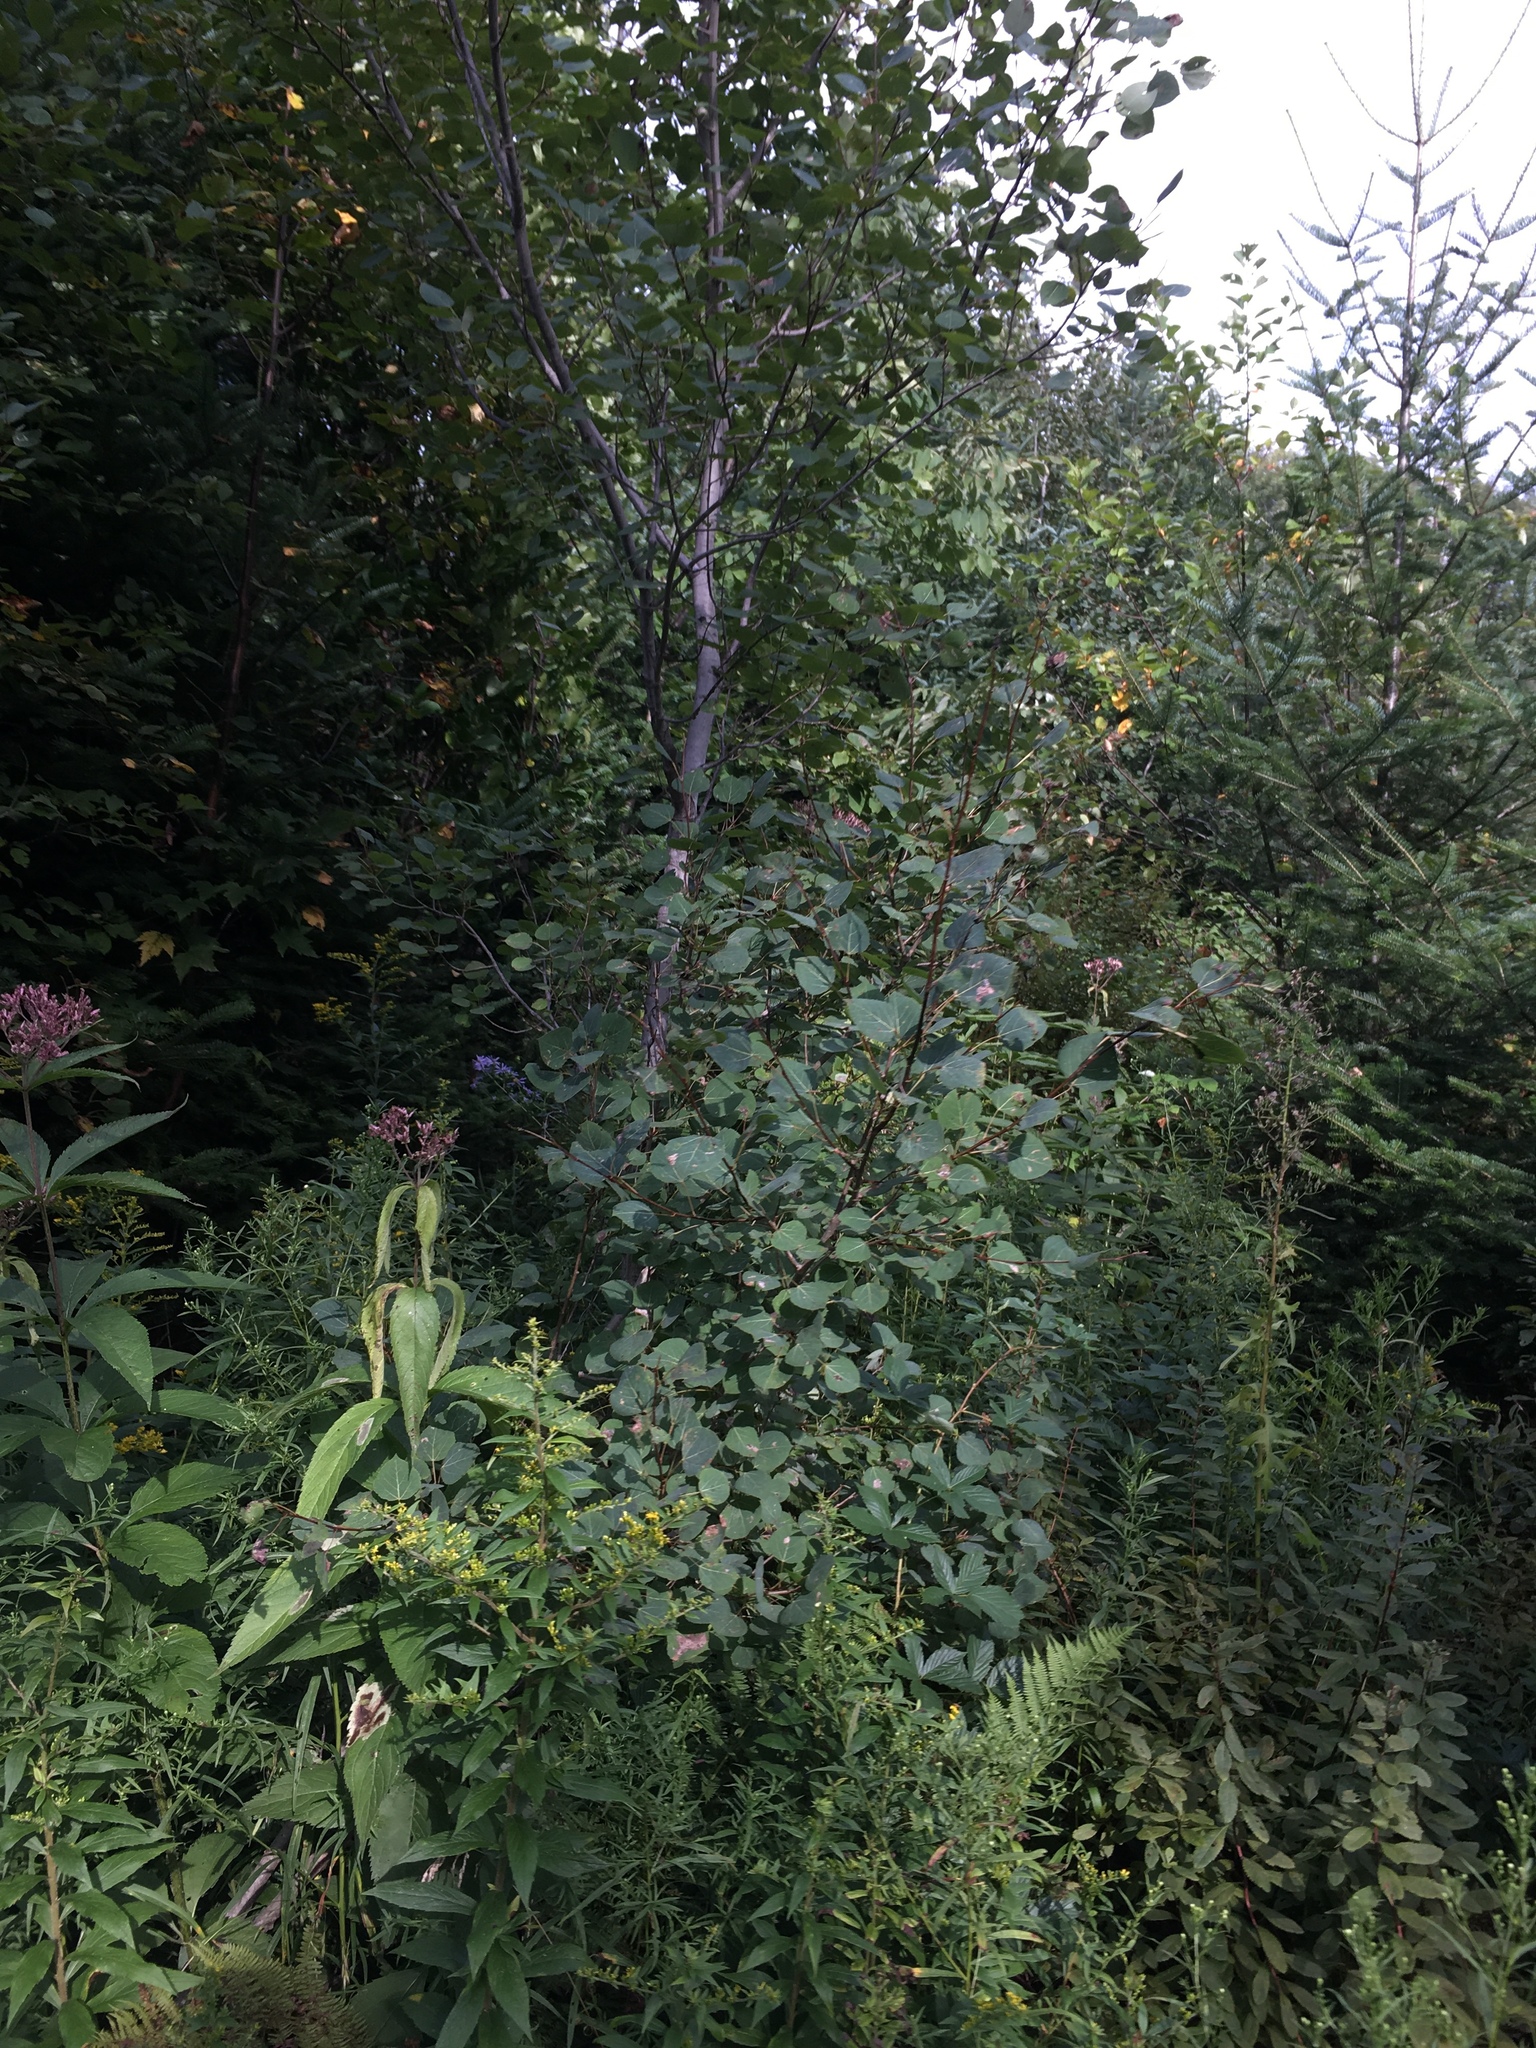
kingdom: Plantae
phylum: Tracheophyta
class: Magnoliopsida
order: Malpighiales
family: Salicaceae
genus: Populus
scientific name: Populus tremuloides
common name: Quaking aspen
